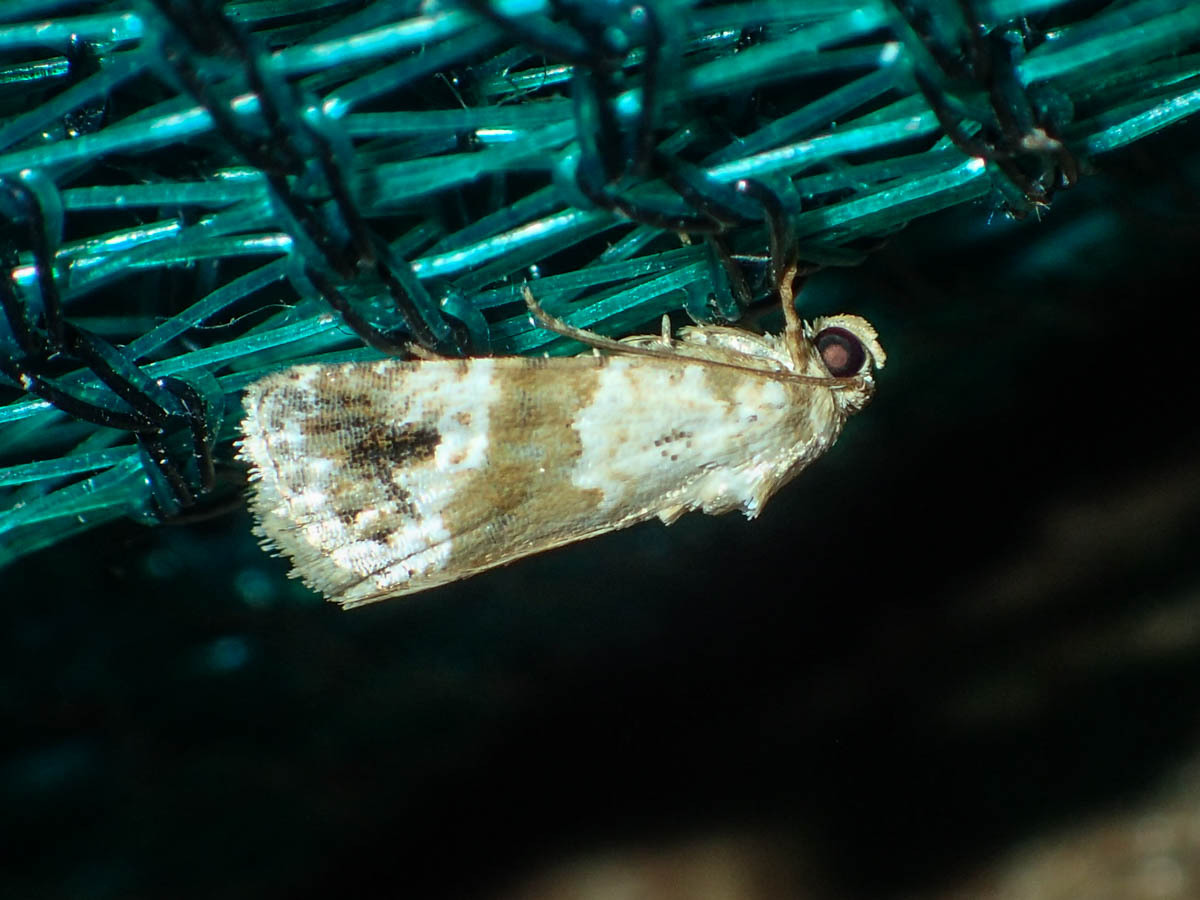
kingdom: Animalia
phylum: Arthropoda
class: Insecta
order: Lepidoptera
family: Noctuidae
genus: Maliattha
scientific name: Maliattha signifera
